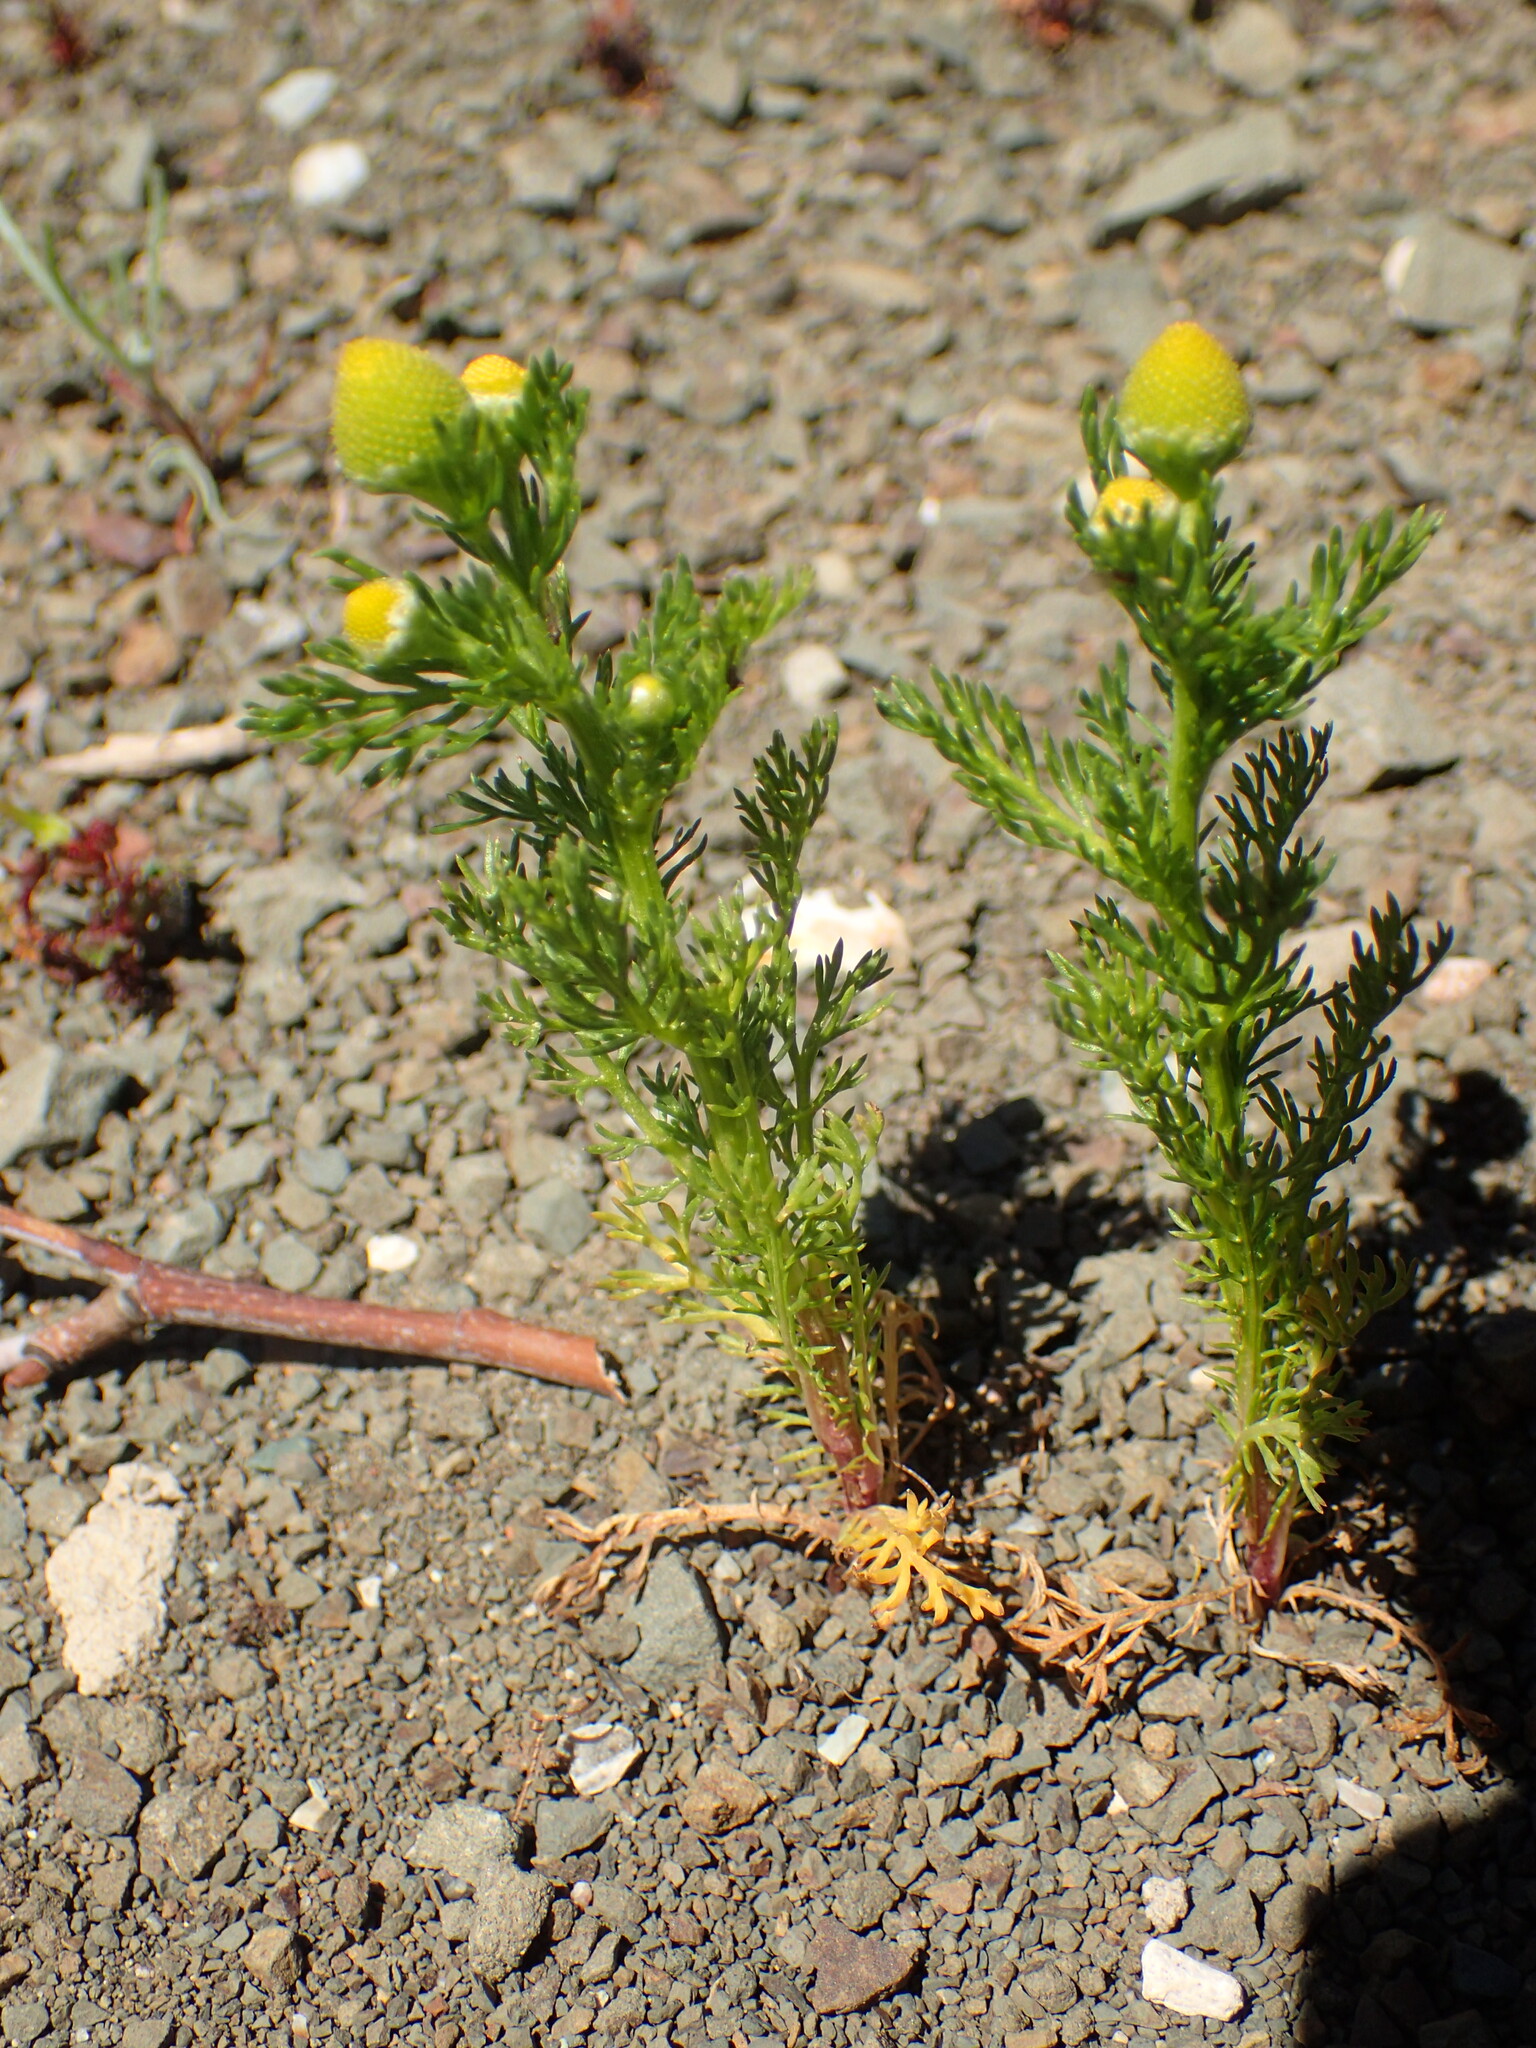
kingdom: Plantae
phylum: Tracheophyta
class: Magnoliopsida
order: Asterales
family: Asteraceae
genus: Matricaria
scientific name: Matricaria discoidea
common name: Disc mayweed
